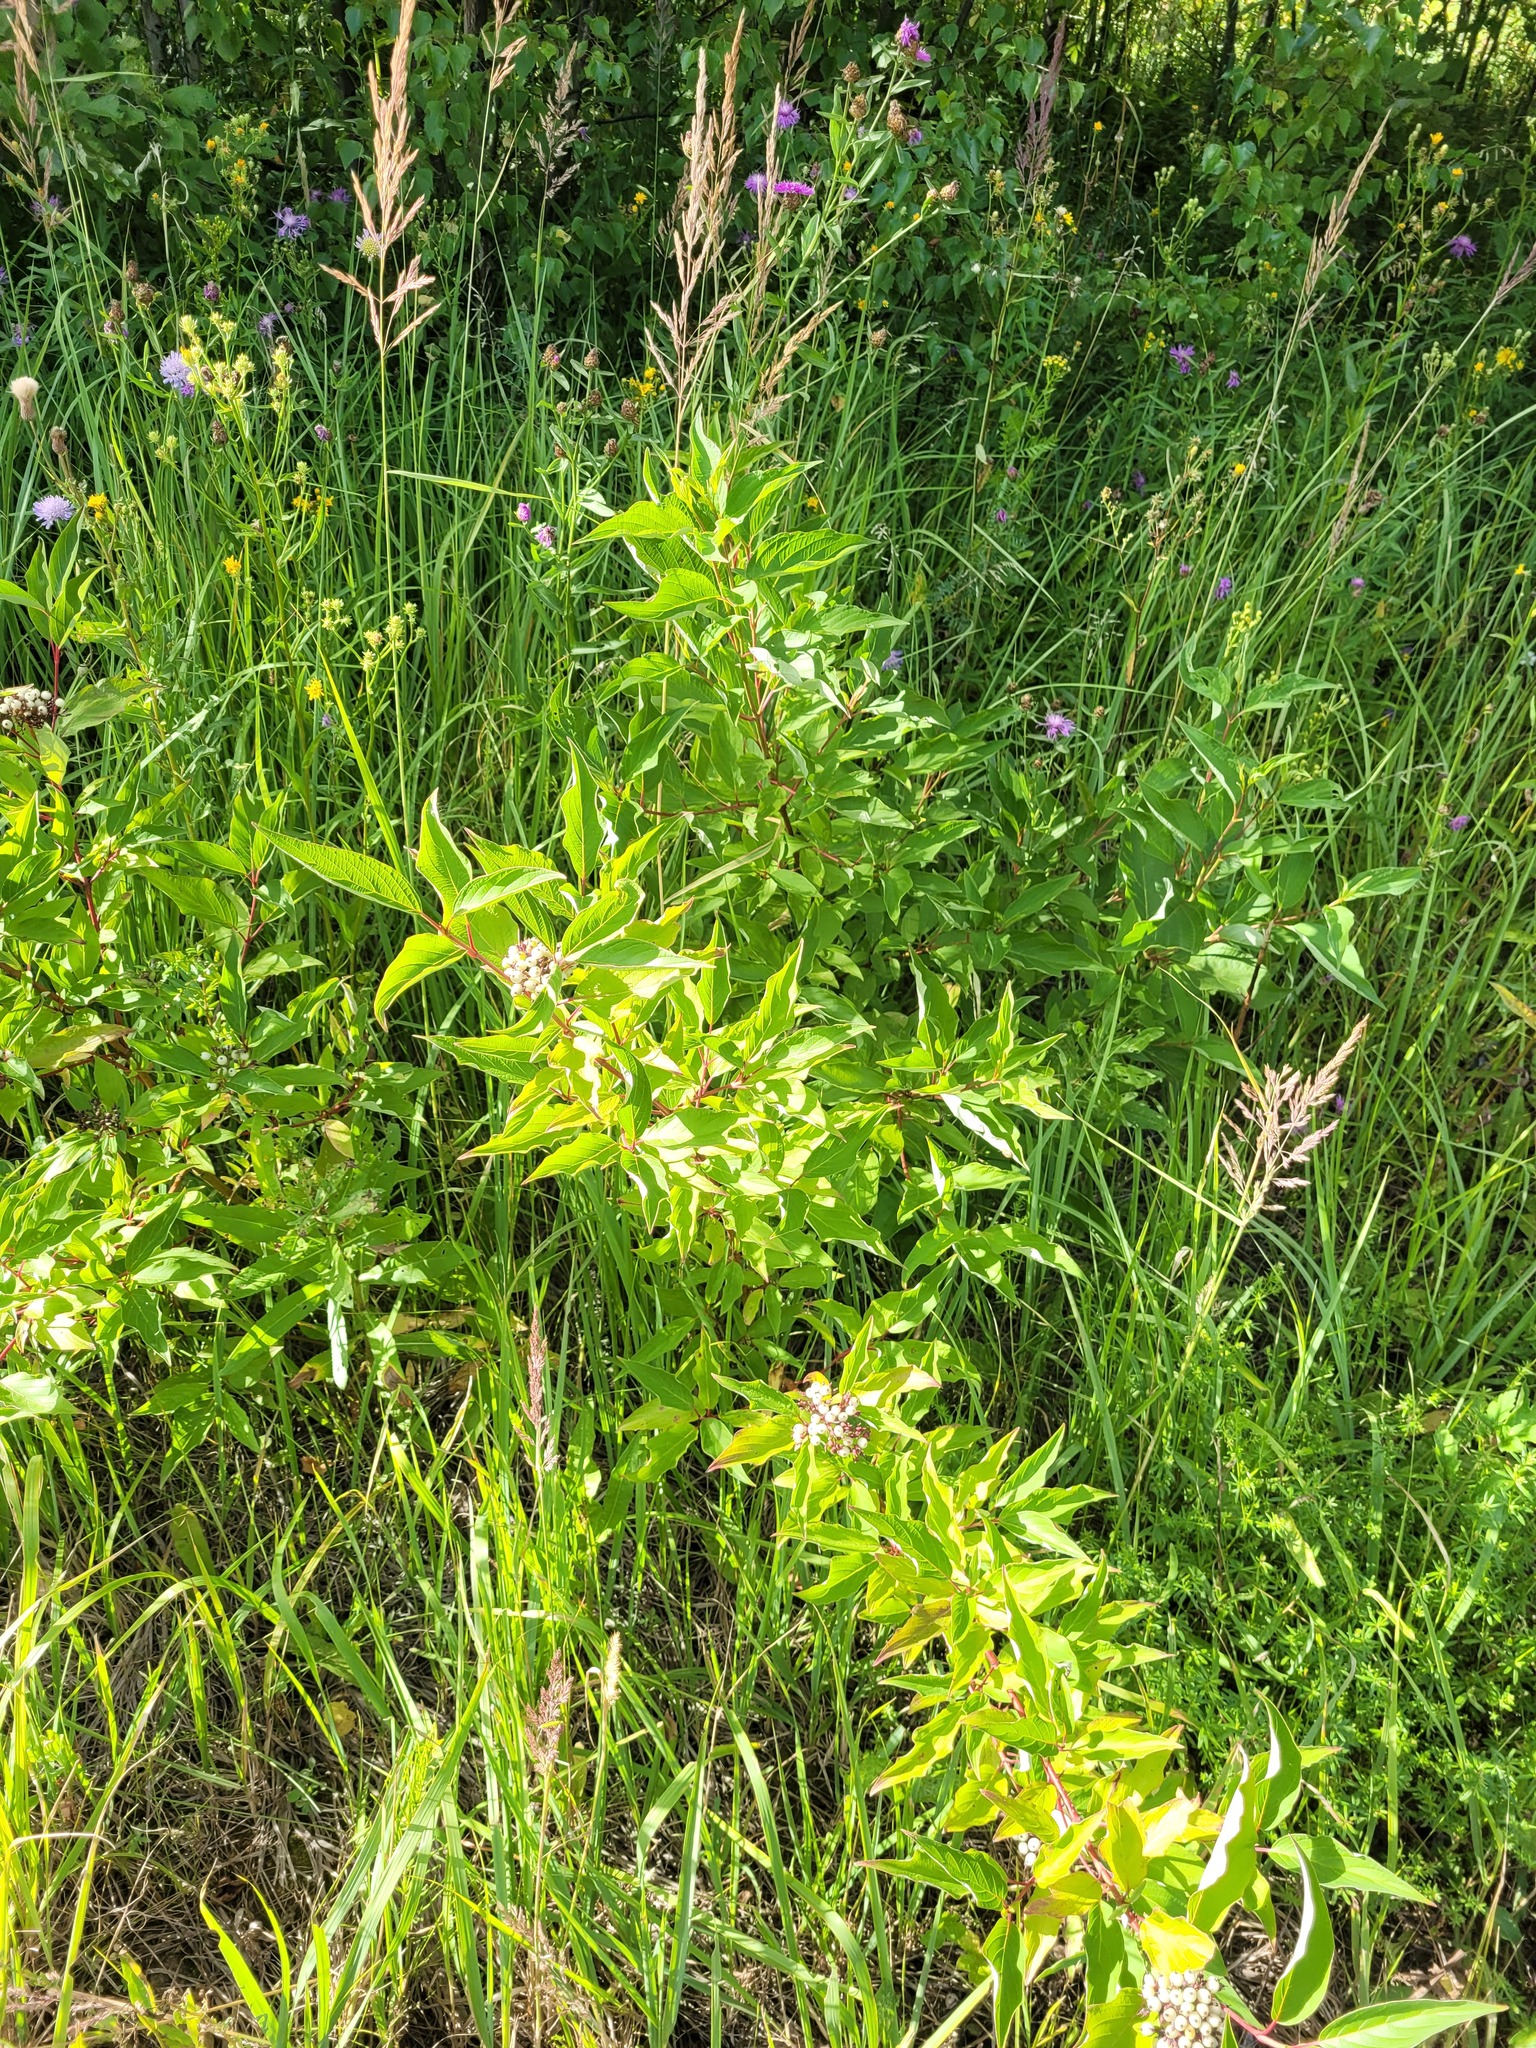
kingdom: Plantae
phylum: Tracheophyta
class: Magnoliopsida
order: Cornales
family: Cornaceae
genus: Cornus
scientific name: Cornus alba
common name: White dogwood
